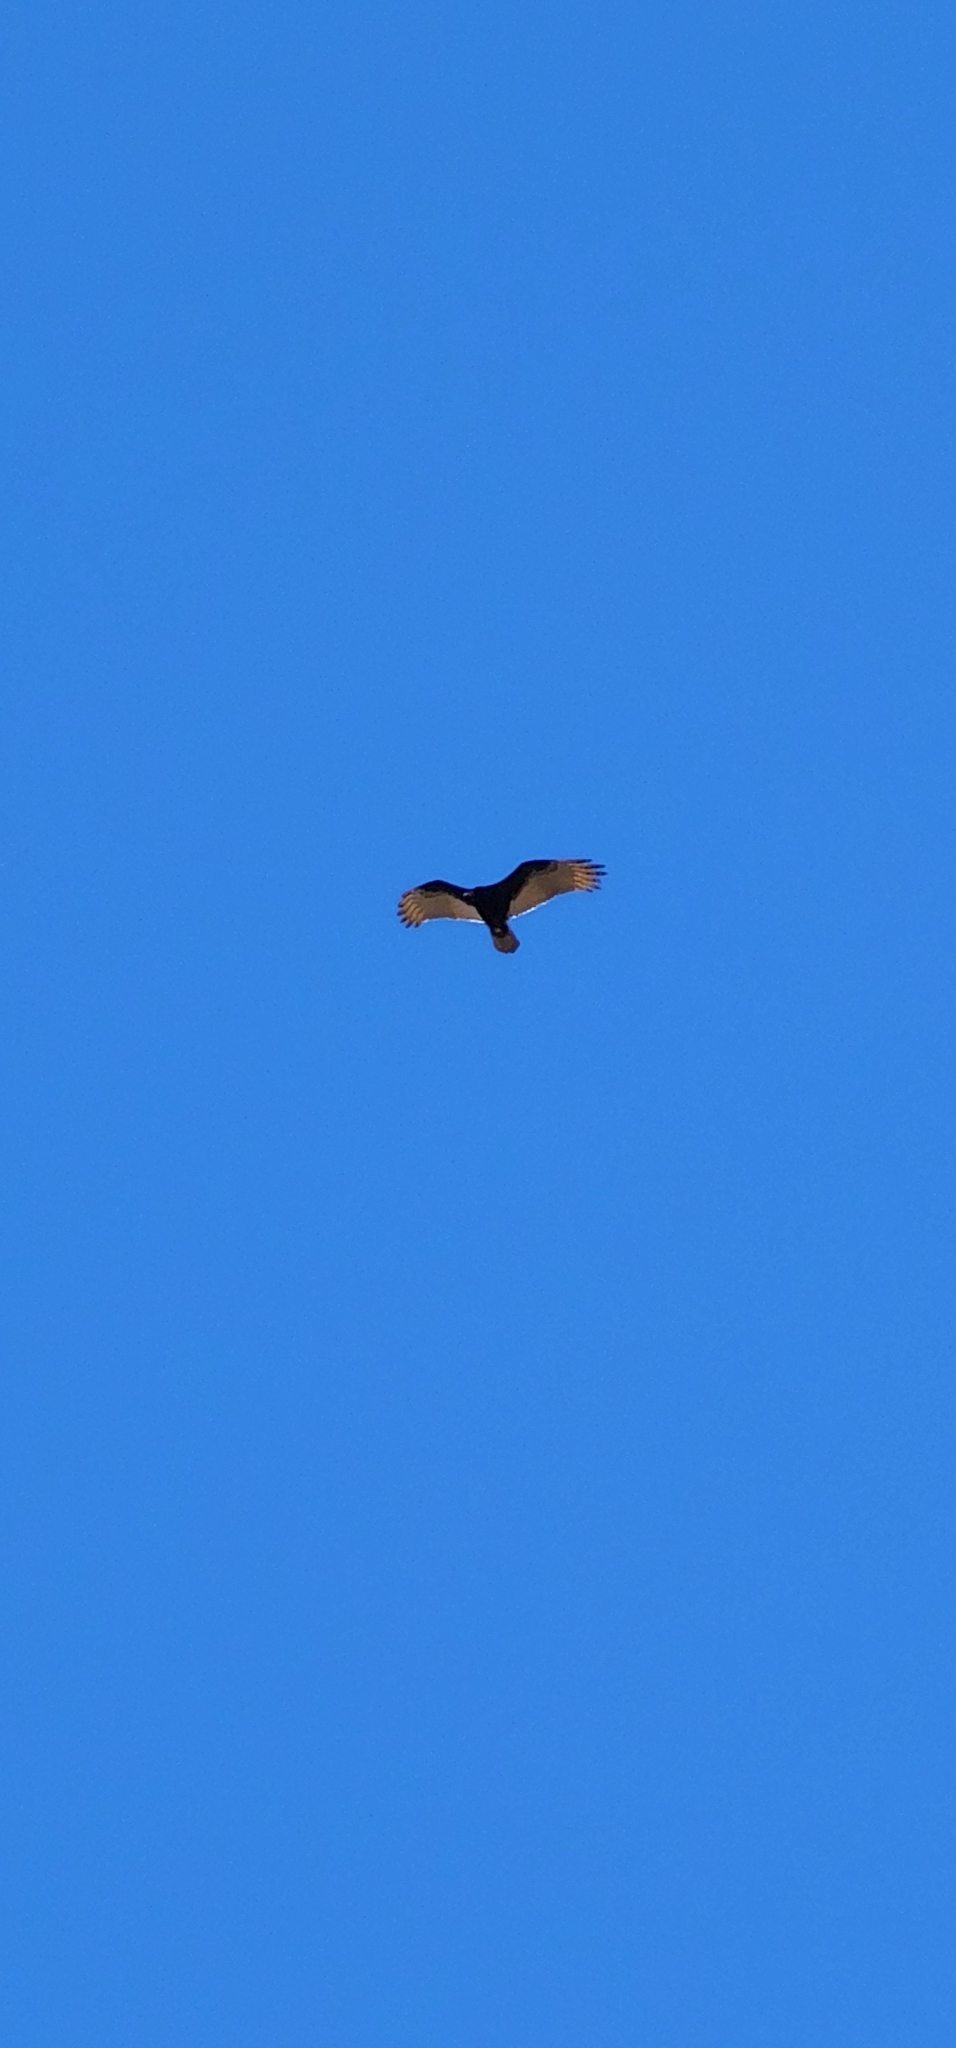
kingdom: Animalia
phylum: Chordata
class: Aves
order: Accipitriformes
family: Cathartidae
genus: Cathartes
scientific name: Cathartes aura
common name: Turkey vulture
